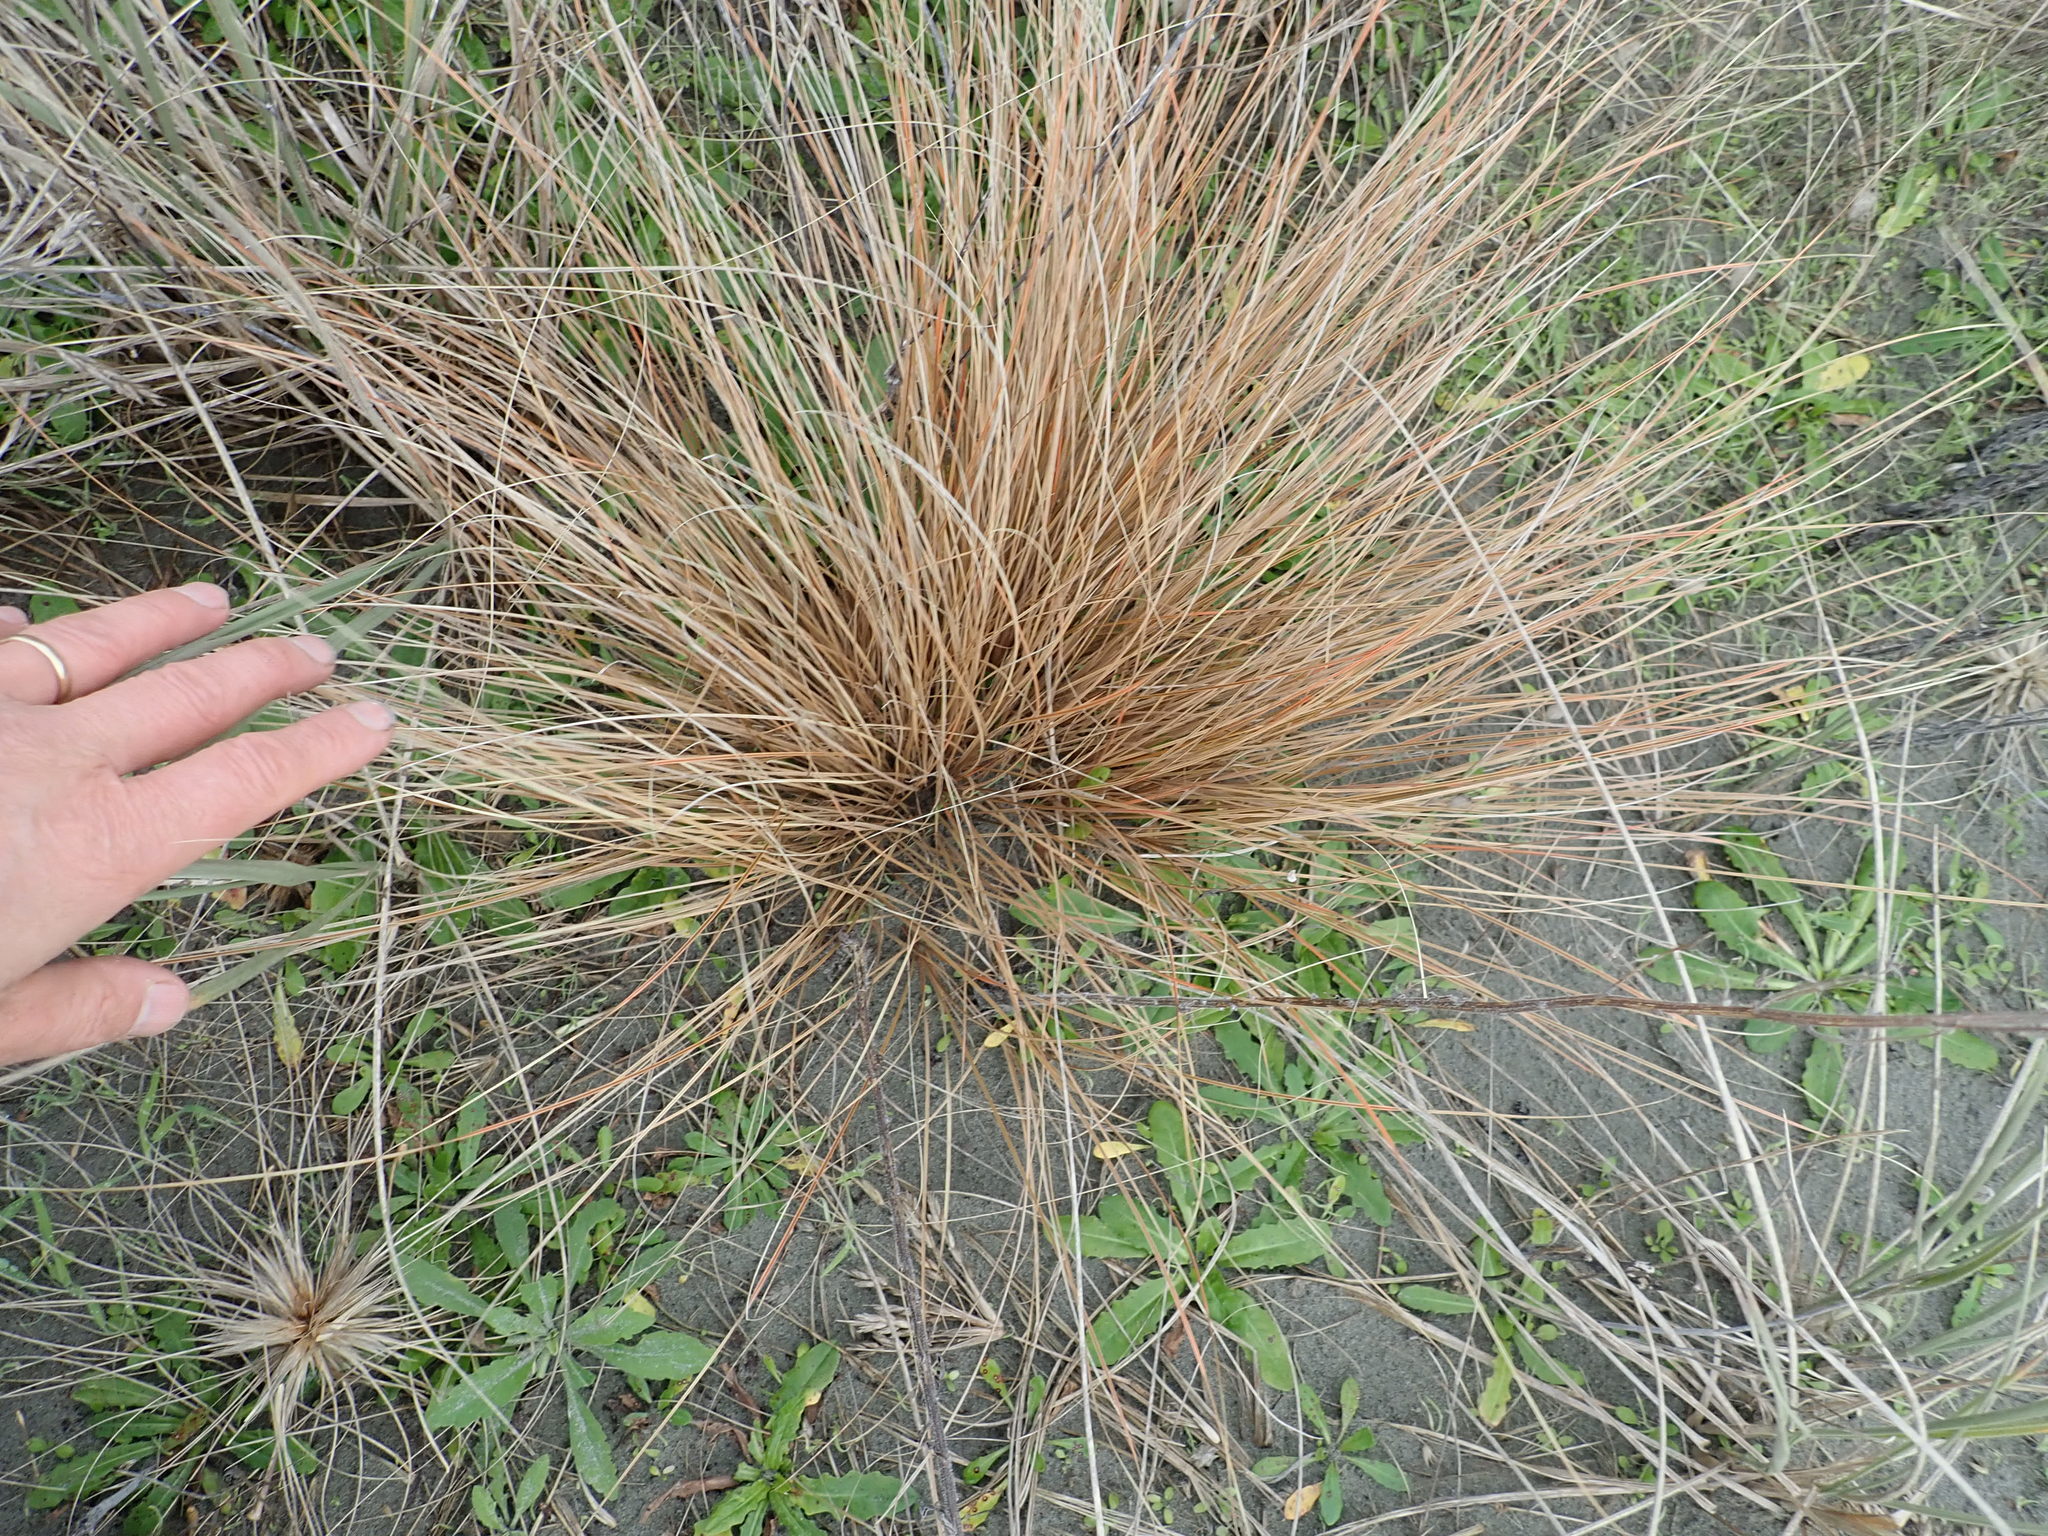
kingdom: Plantae
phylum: Tracheophyta
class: Liliopsida
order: Poales
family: Cyperaceae
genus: Carex
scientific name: Carex testacea
